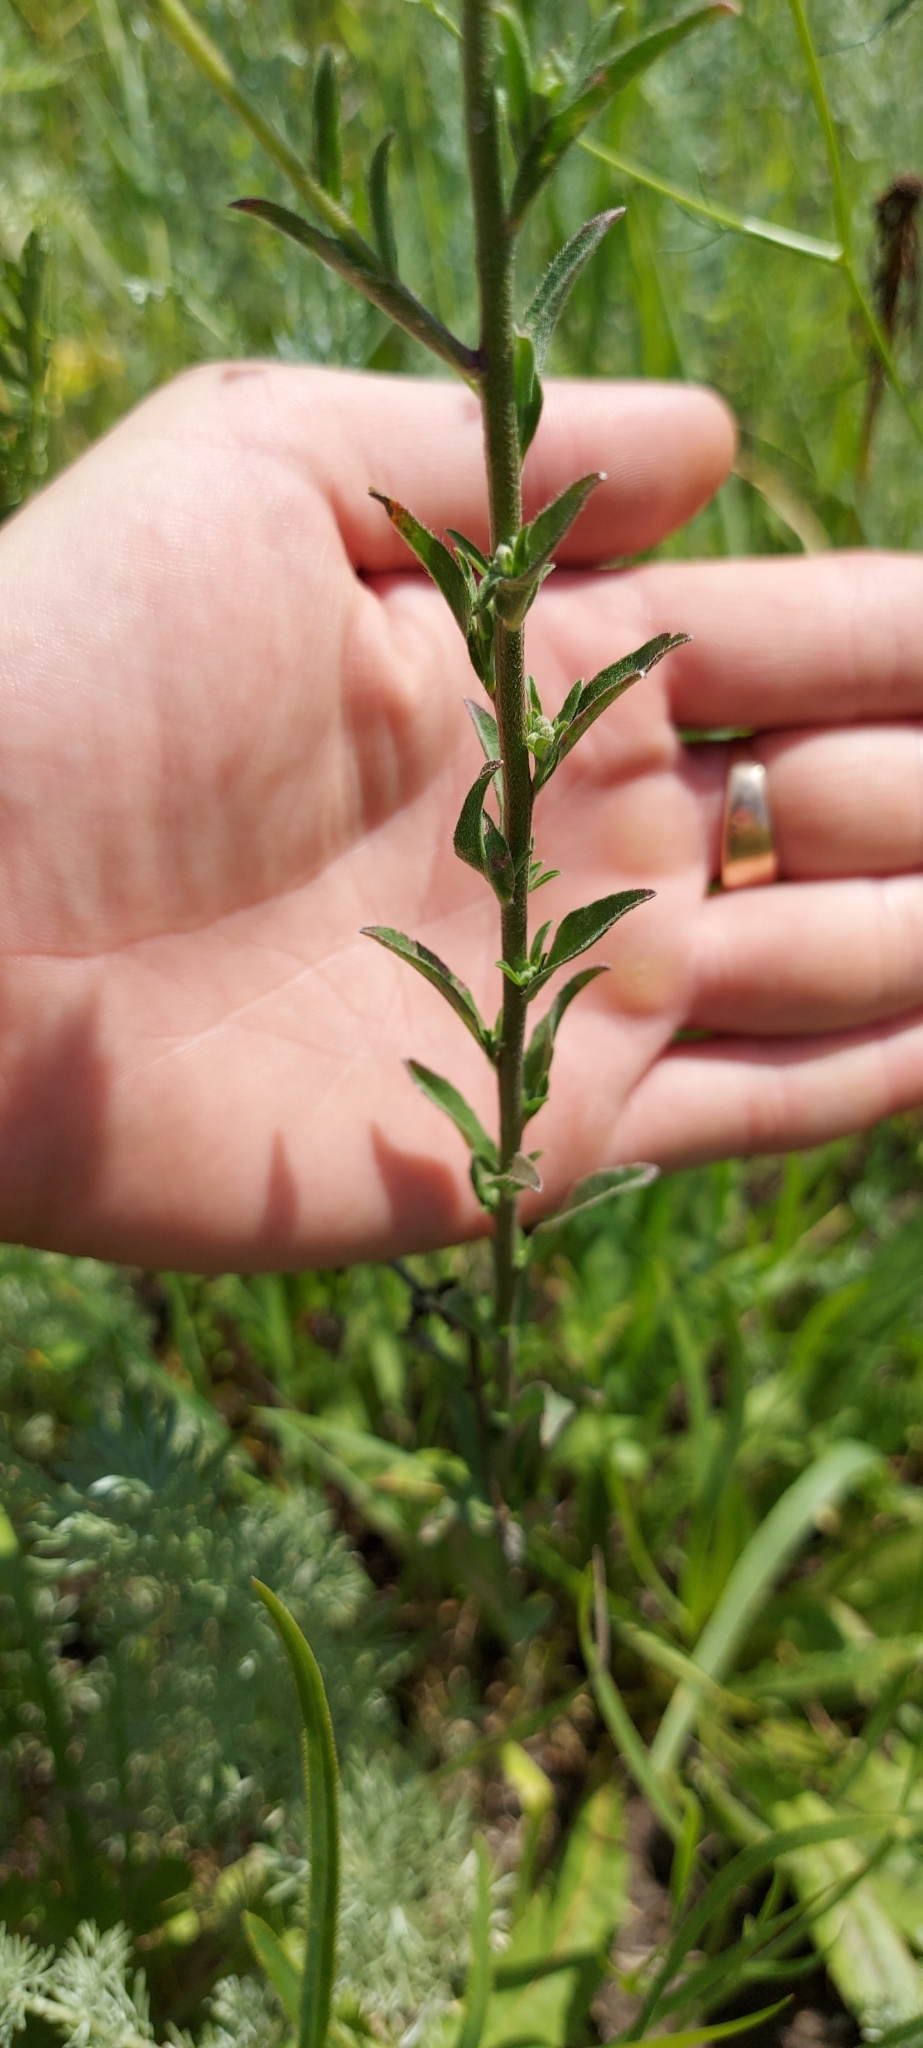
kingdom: Plantae
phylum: Tracheophyta
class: Magnoliopsida
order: Brassicales
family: Brassicaceae
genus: Berteroa
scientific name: Berteroa incana
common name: Hoary alison
